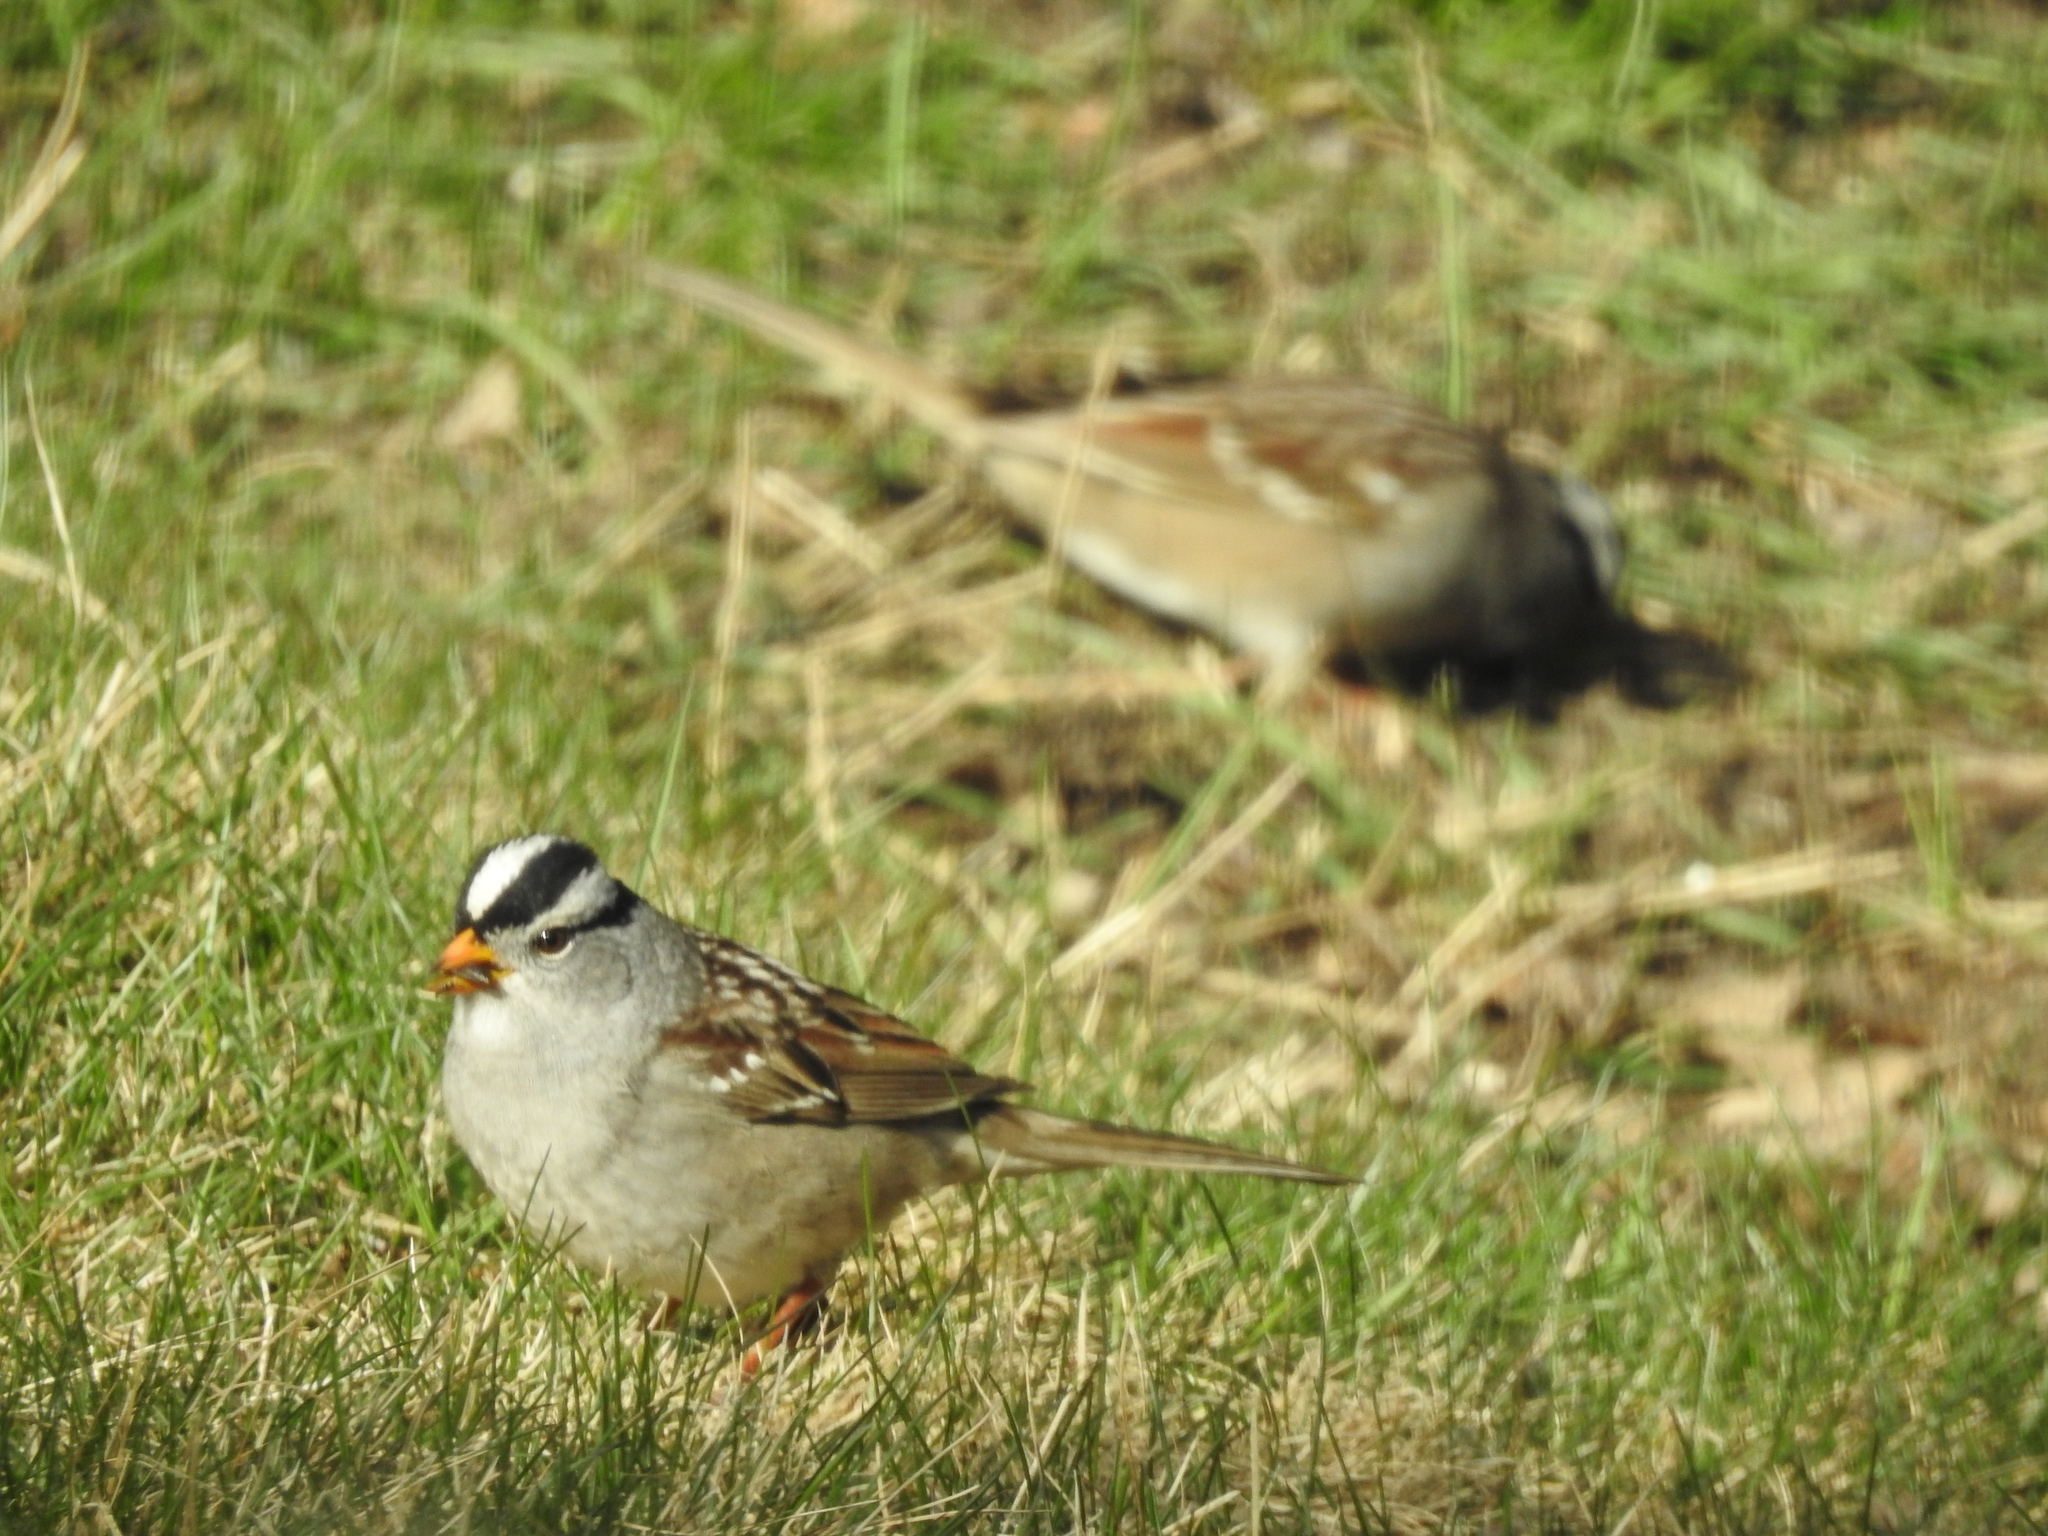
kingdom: Animalia
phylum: Chordata
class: Aves
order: Passeriformes
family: Passerellidae
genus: Zonotrichia
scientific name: Zonotrichia leucophrys
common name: White-crowned sparrow
